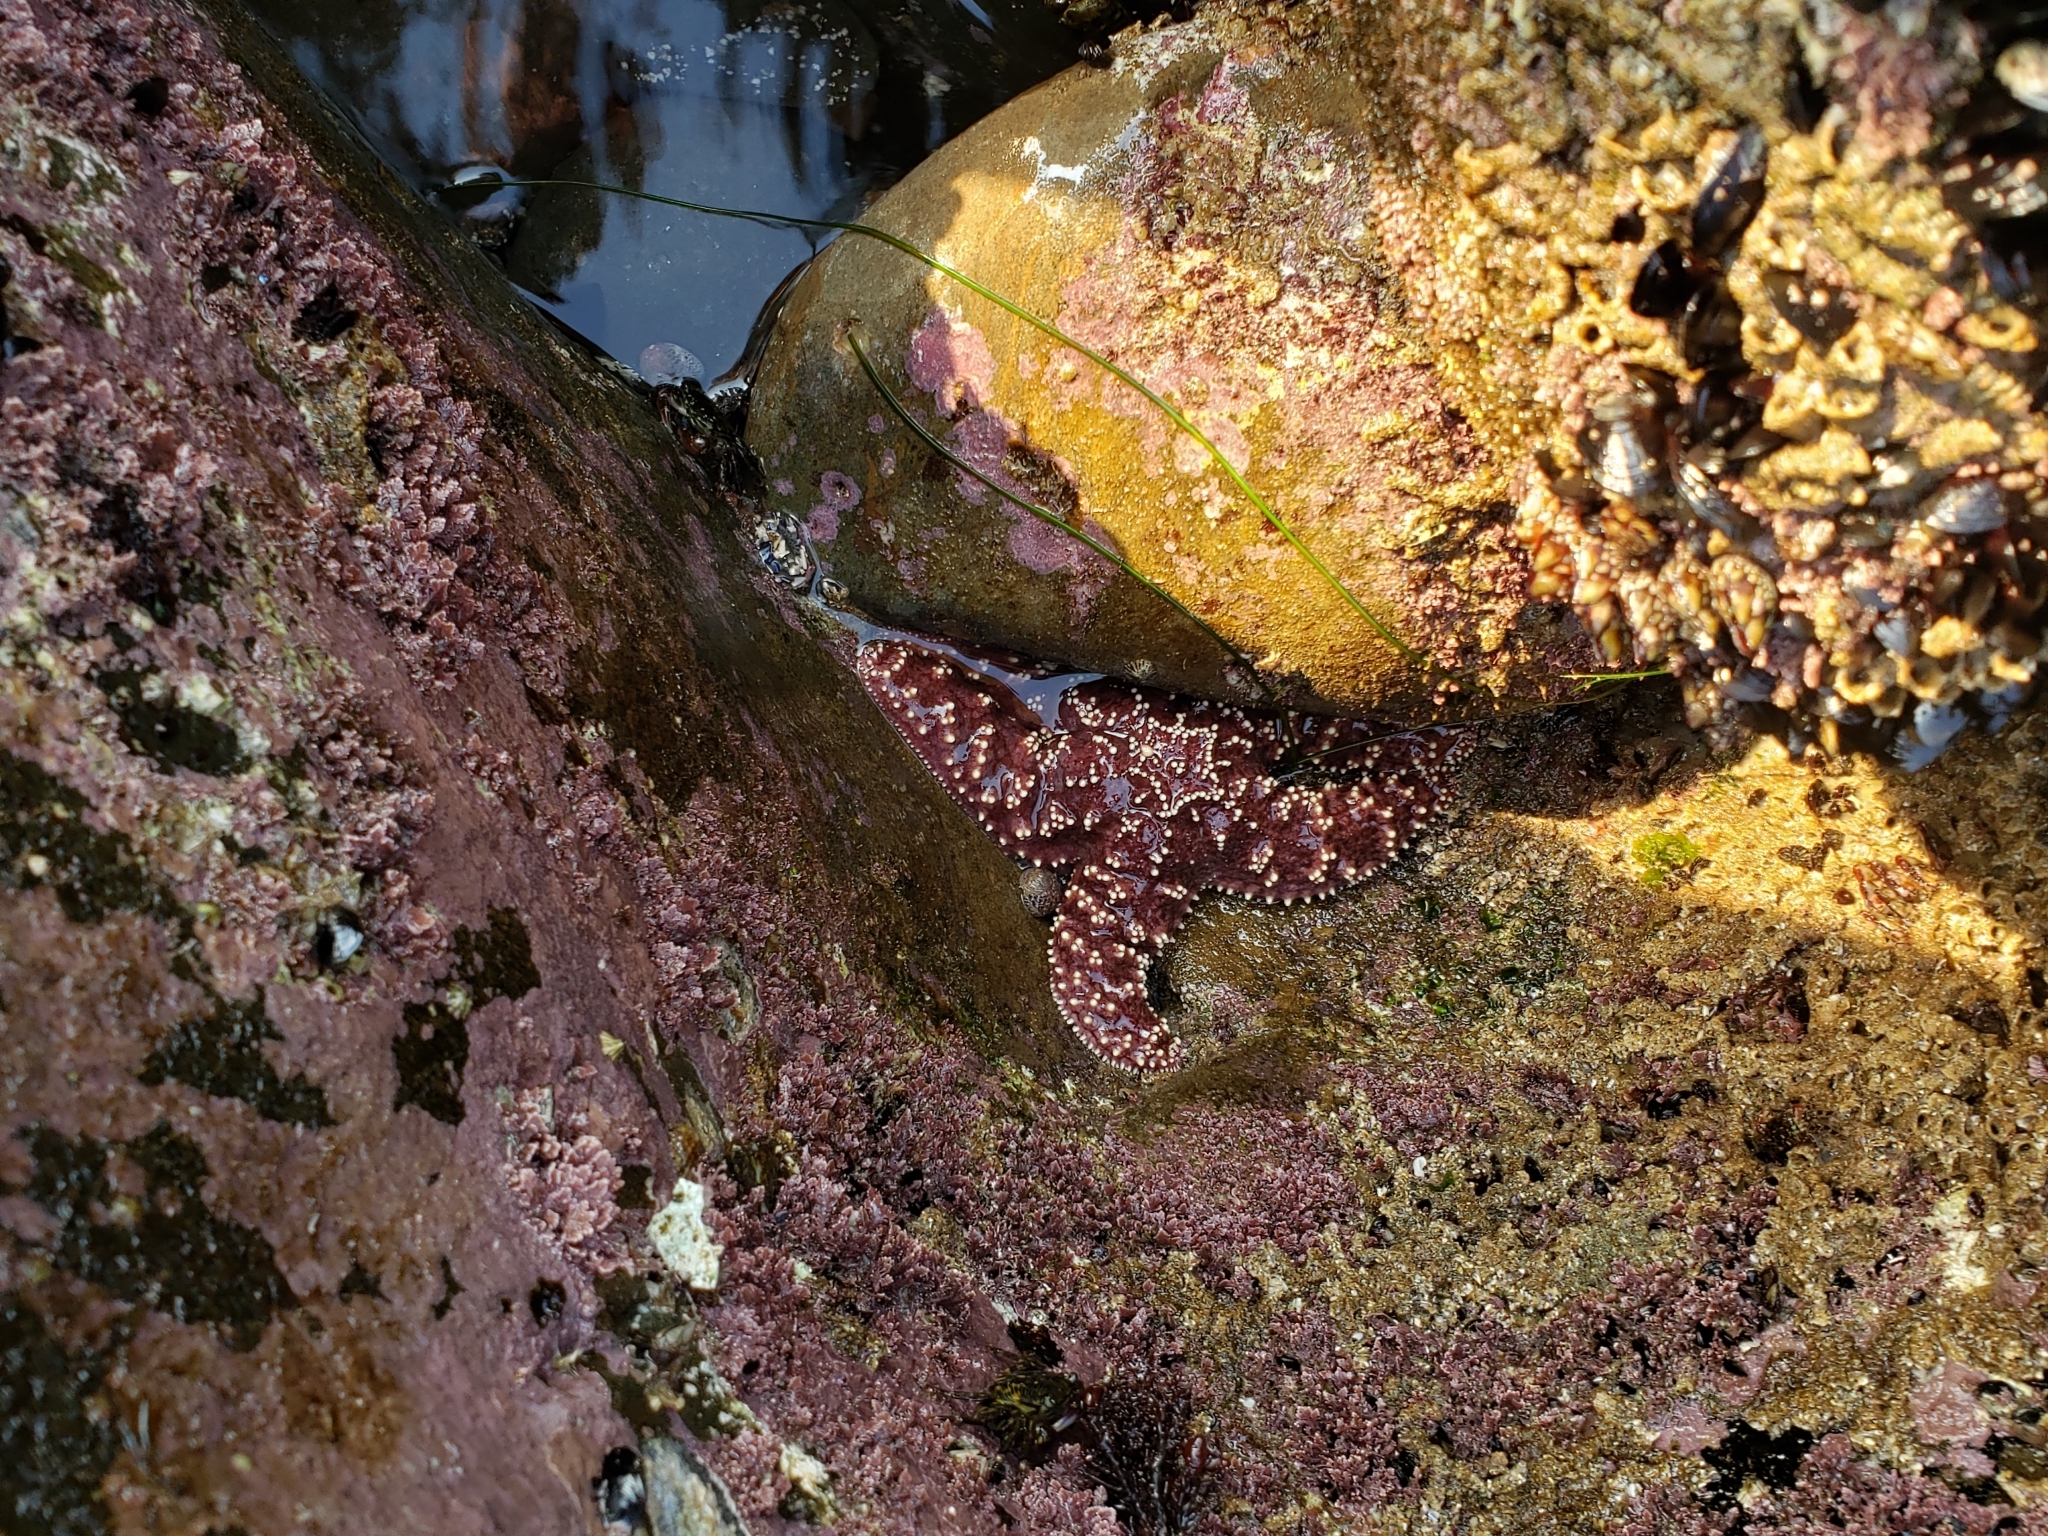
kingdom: Animalia
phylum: Echinodermata
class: Asteroidea
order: Forcipulatida
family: Asteriidae
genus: Pisaster
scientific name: Pisaster ochraceus
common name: Ochre stars
